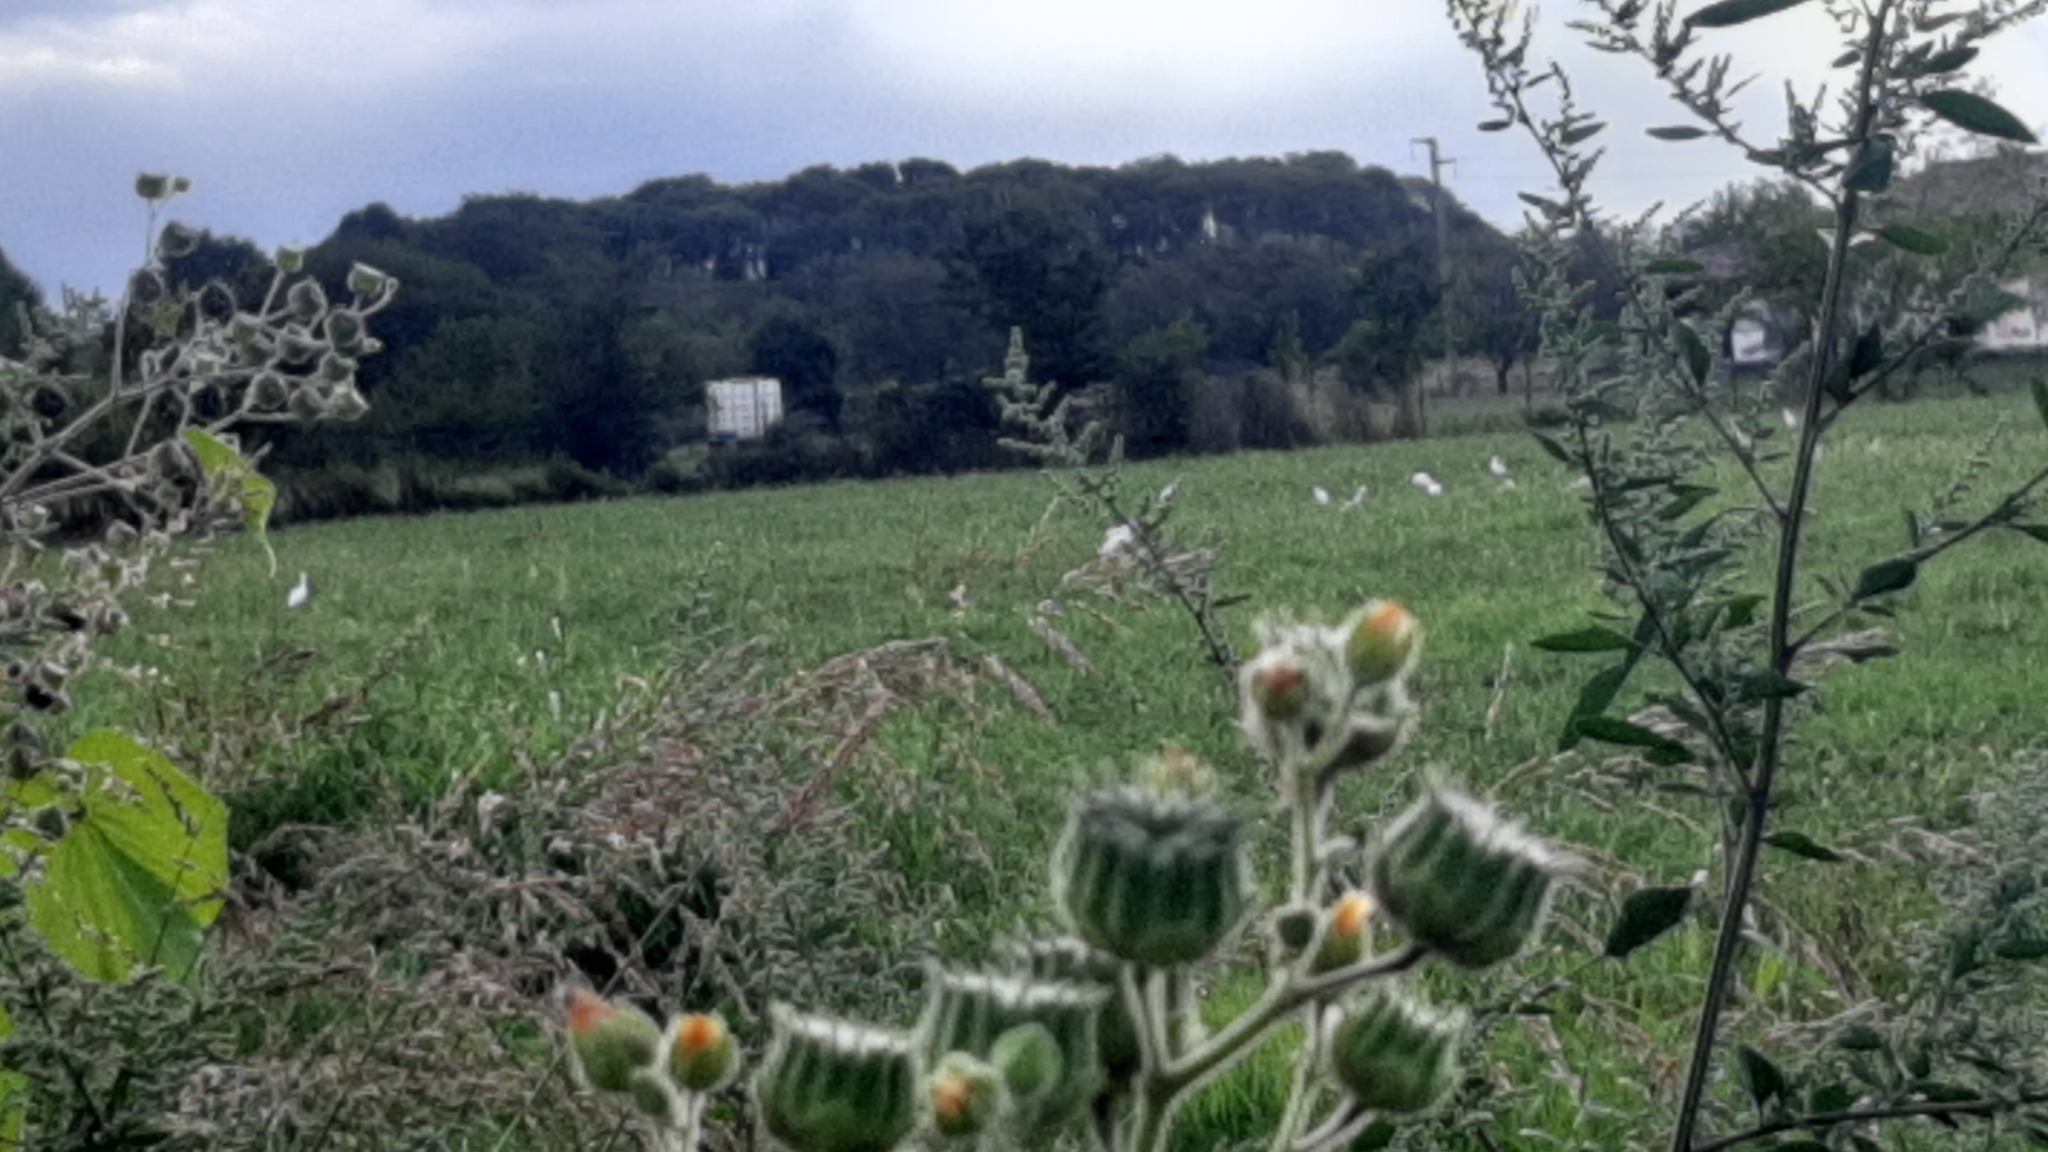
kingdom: Plantae
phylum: Tracheophyta
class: Magnoliopsida
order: Malvales
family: Malvaceae
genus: Abutilon
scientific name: Abutilon theophrasti
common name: Velvetleaf
